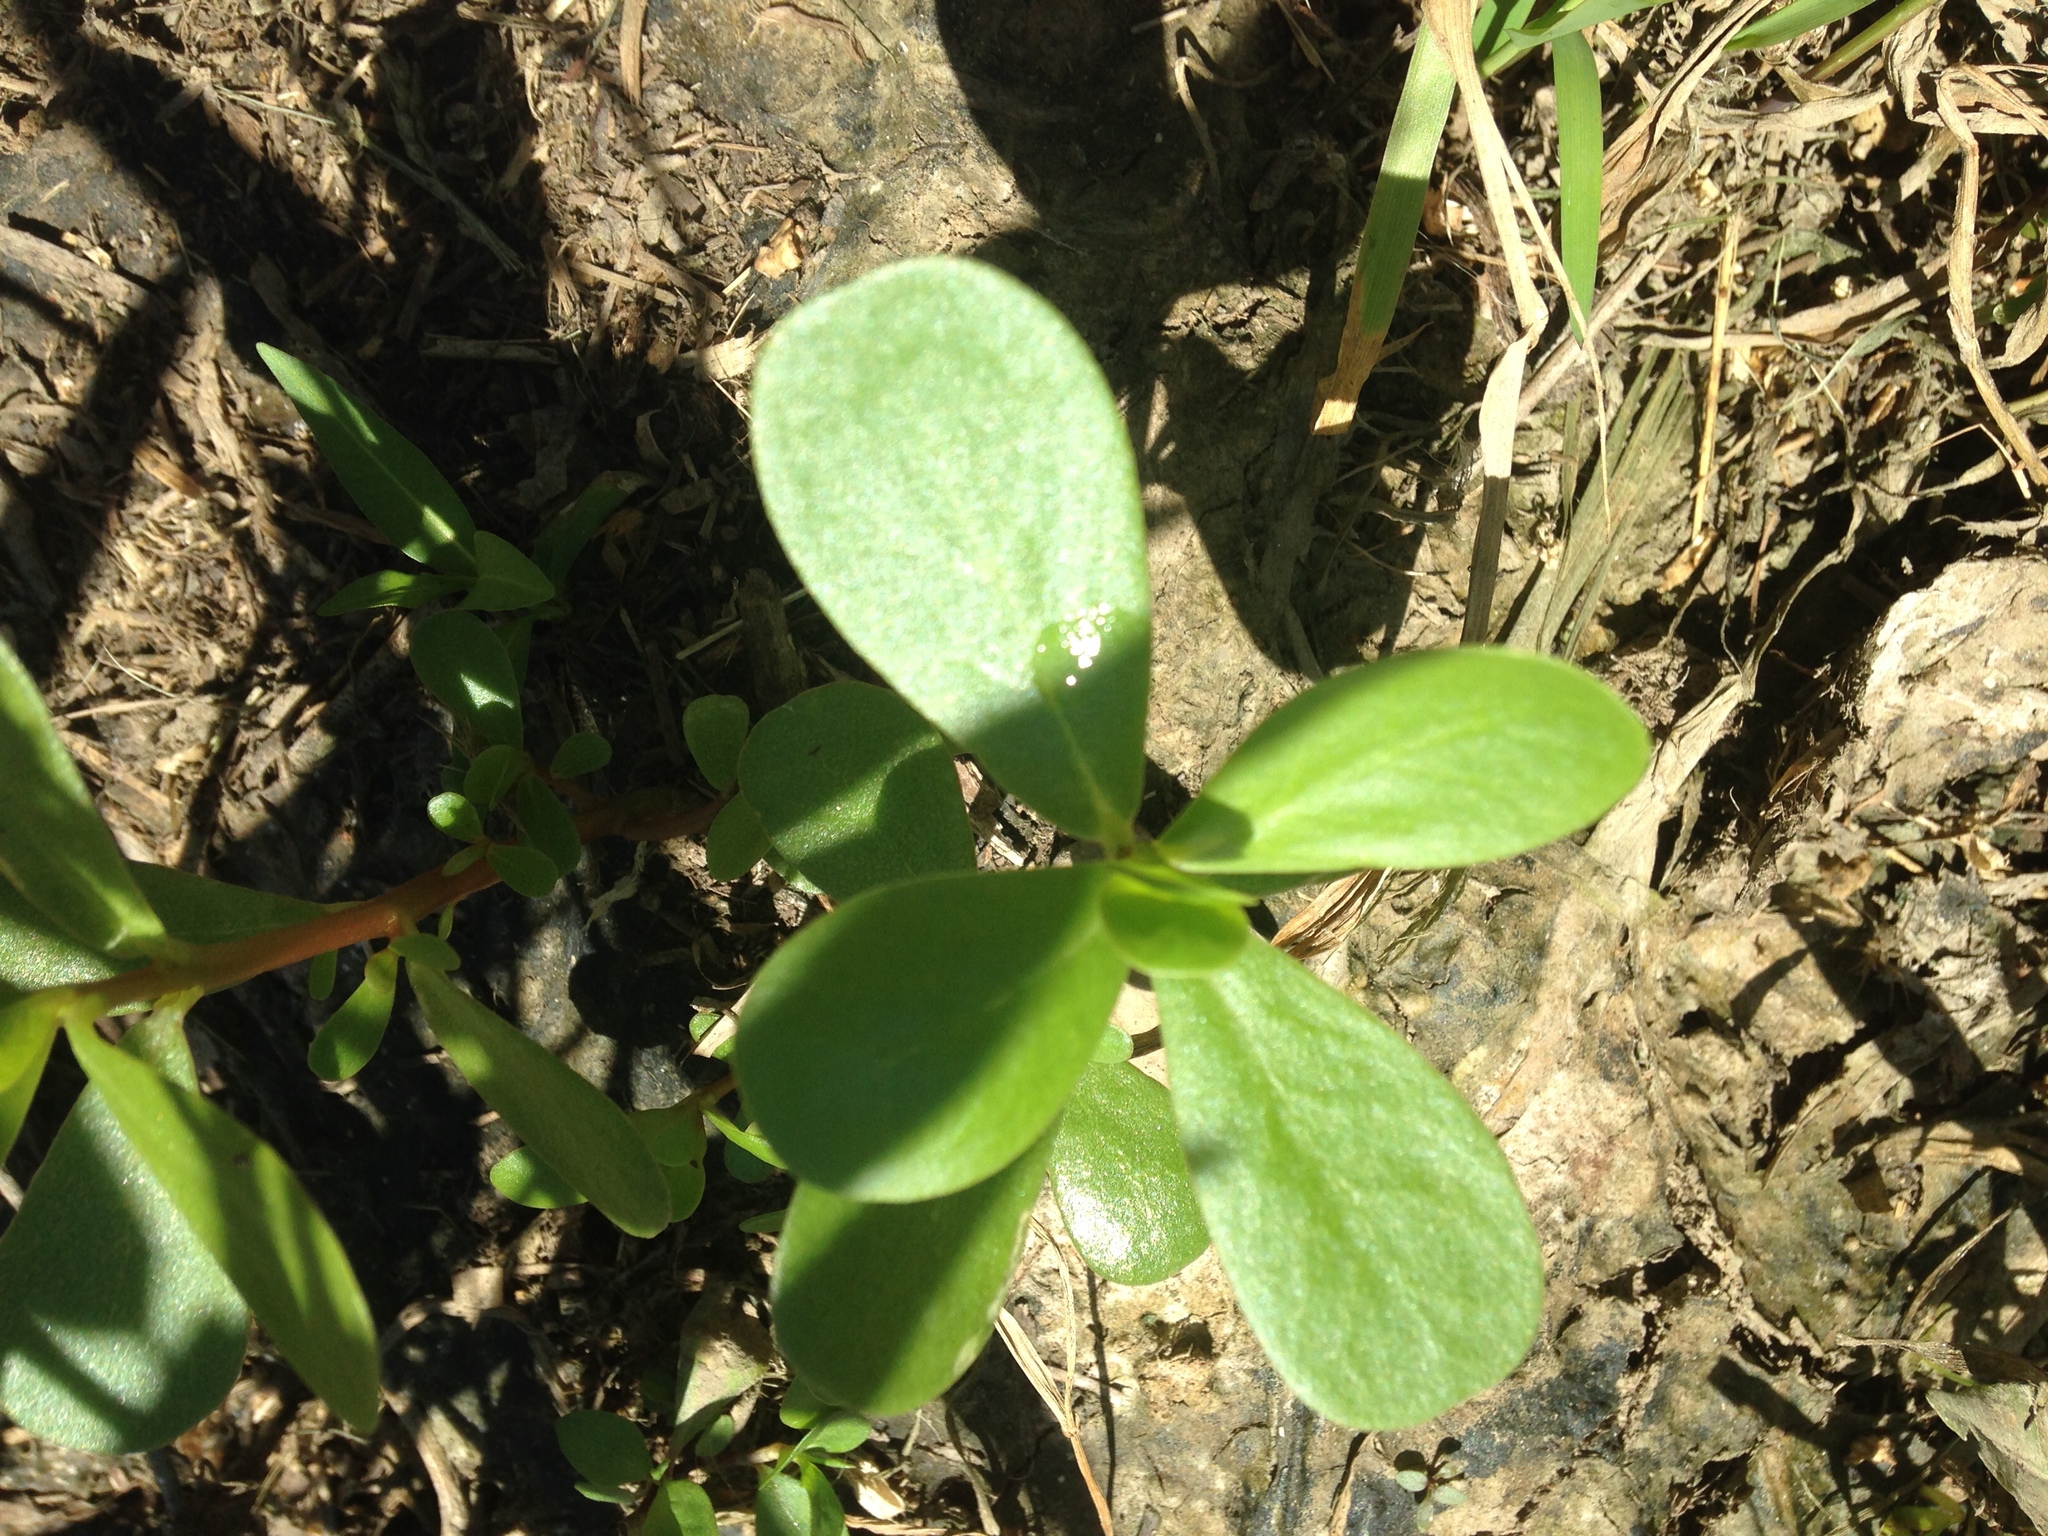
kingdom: Plantae
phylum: Tracheophyta
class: Magnoliopsida
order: Caryophyllales
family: Portulacaceae
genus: Portulaca
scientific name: Portulaca oleracea
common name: Common purslane
